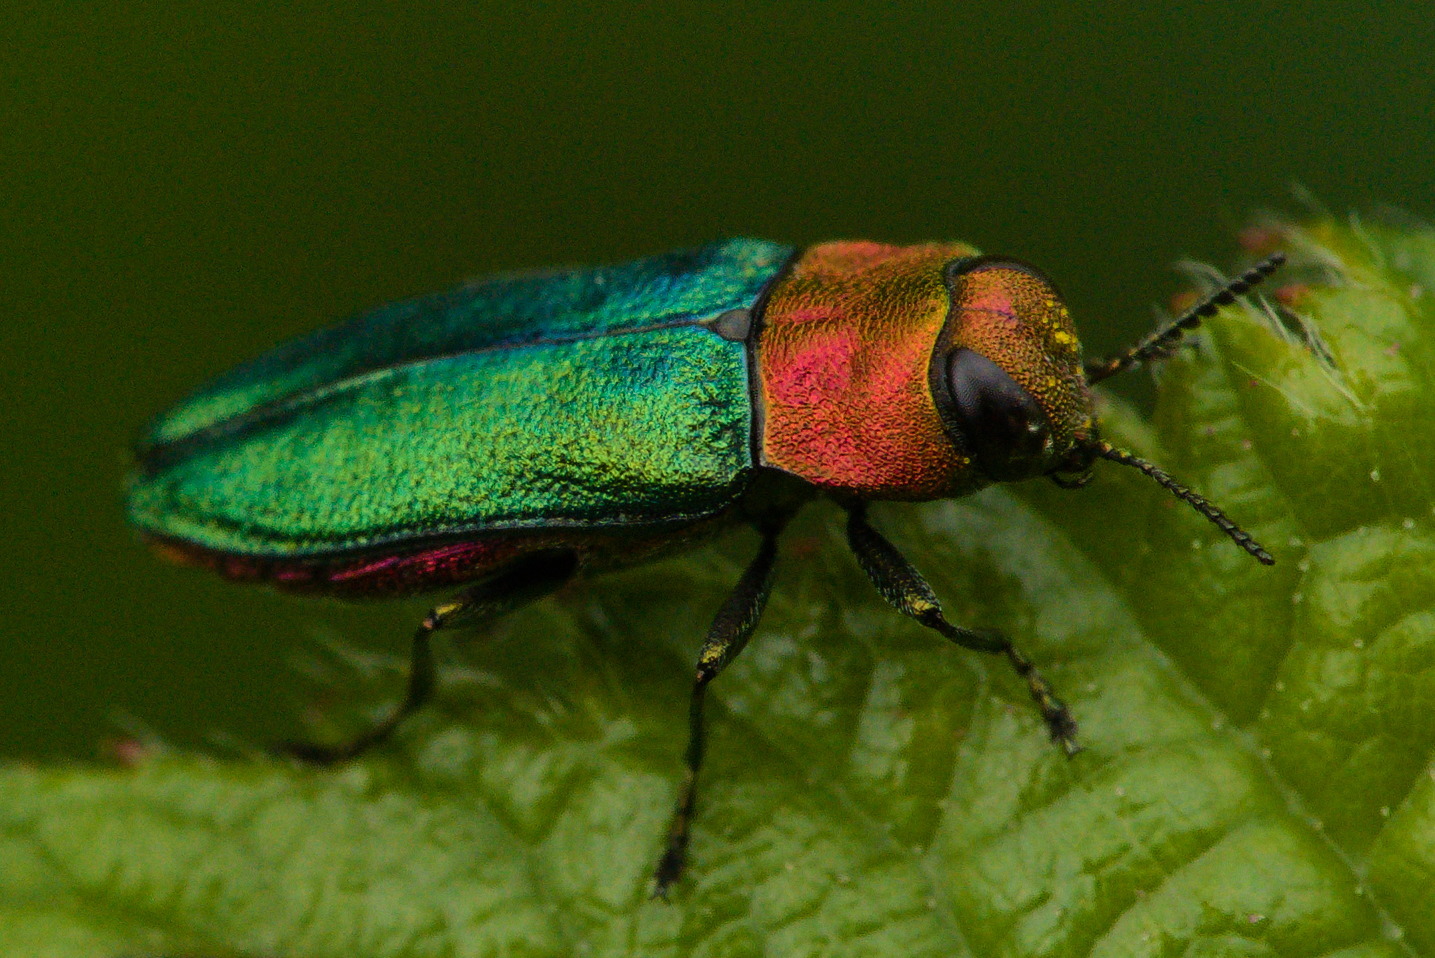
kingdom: Animalia
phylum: Arthropoda
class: Insecta
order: Coleoptera
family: Buprestidae
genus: Anthaxia
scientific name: Anthaxia nitidula
